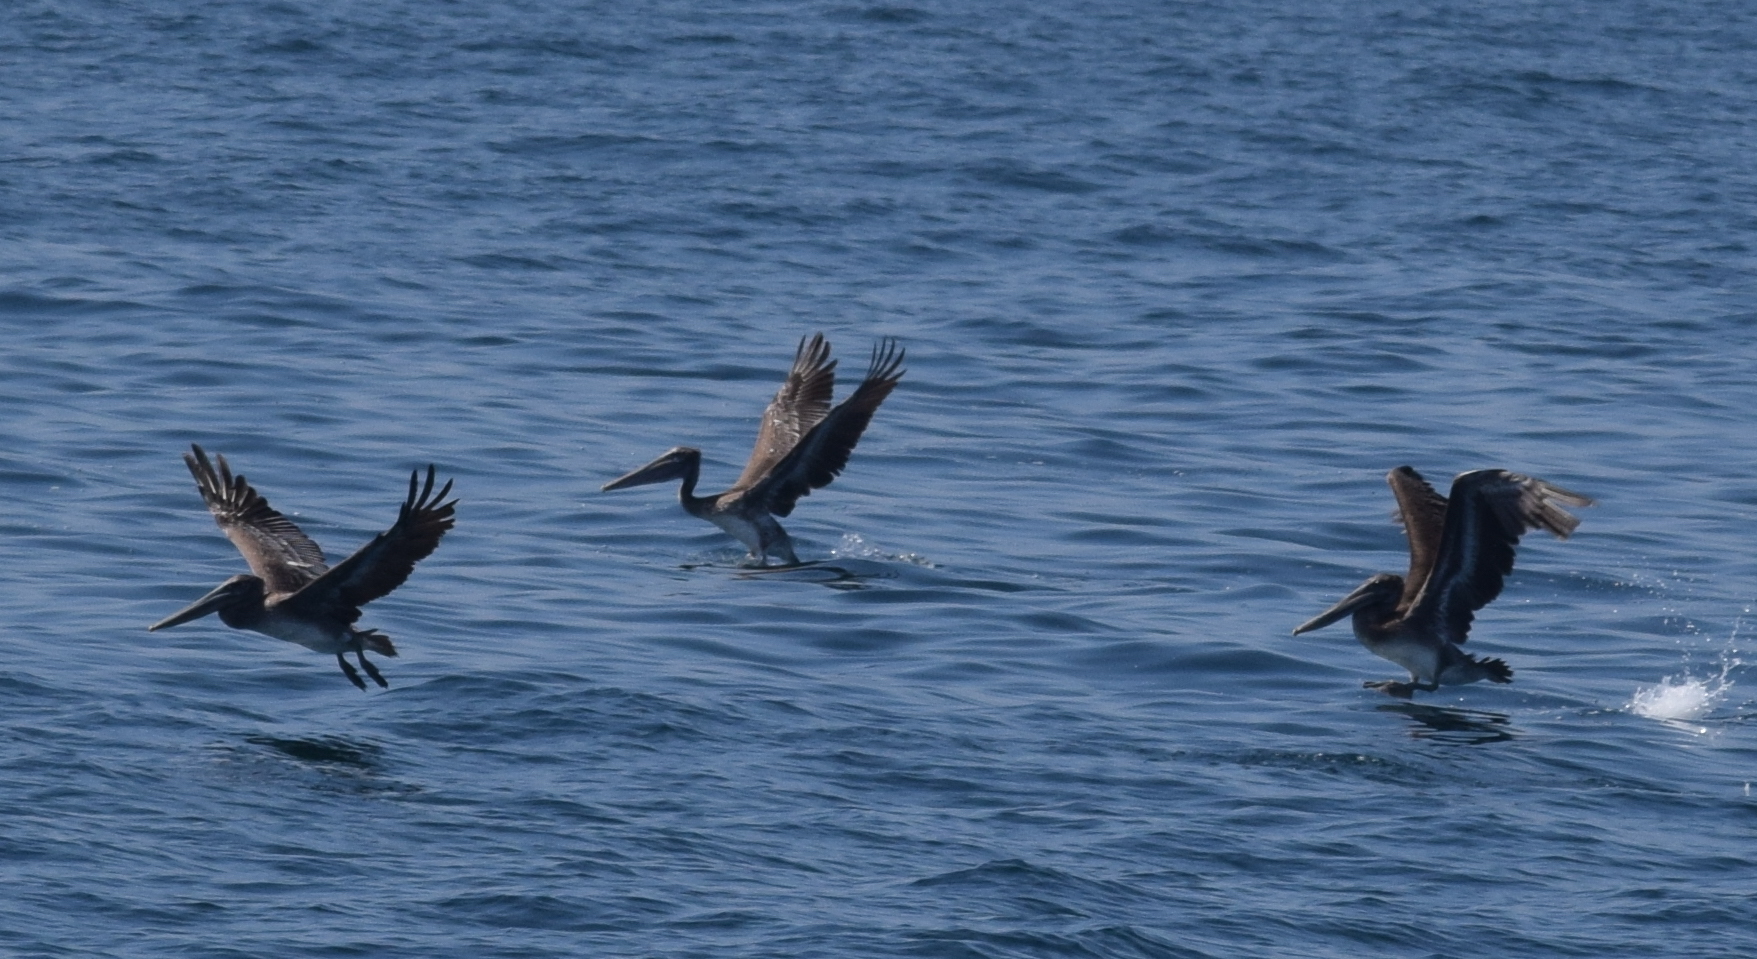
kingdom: Animalia
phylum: Chordata
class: Aves
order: Pelecaniformes
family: Pelecanidae
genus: Pelecanus
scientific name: Pelecanus occidentalis
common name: Brown pelican
